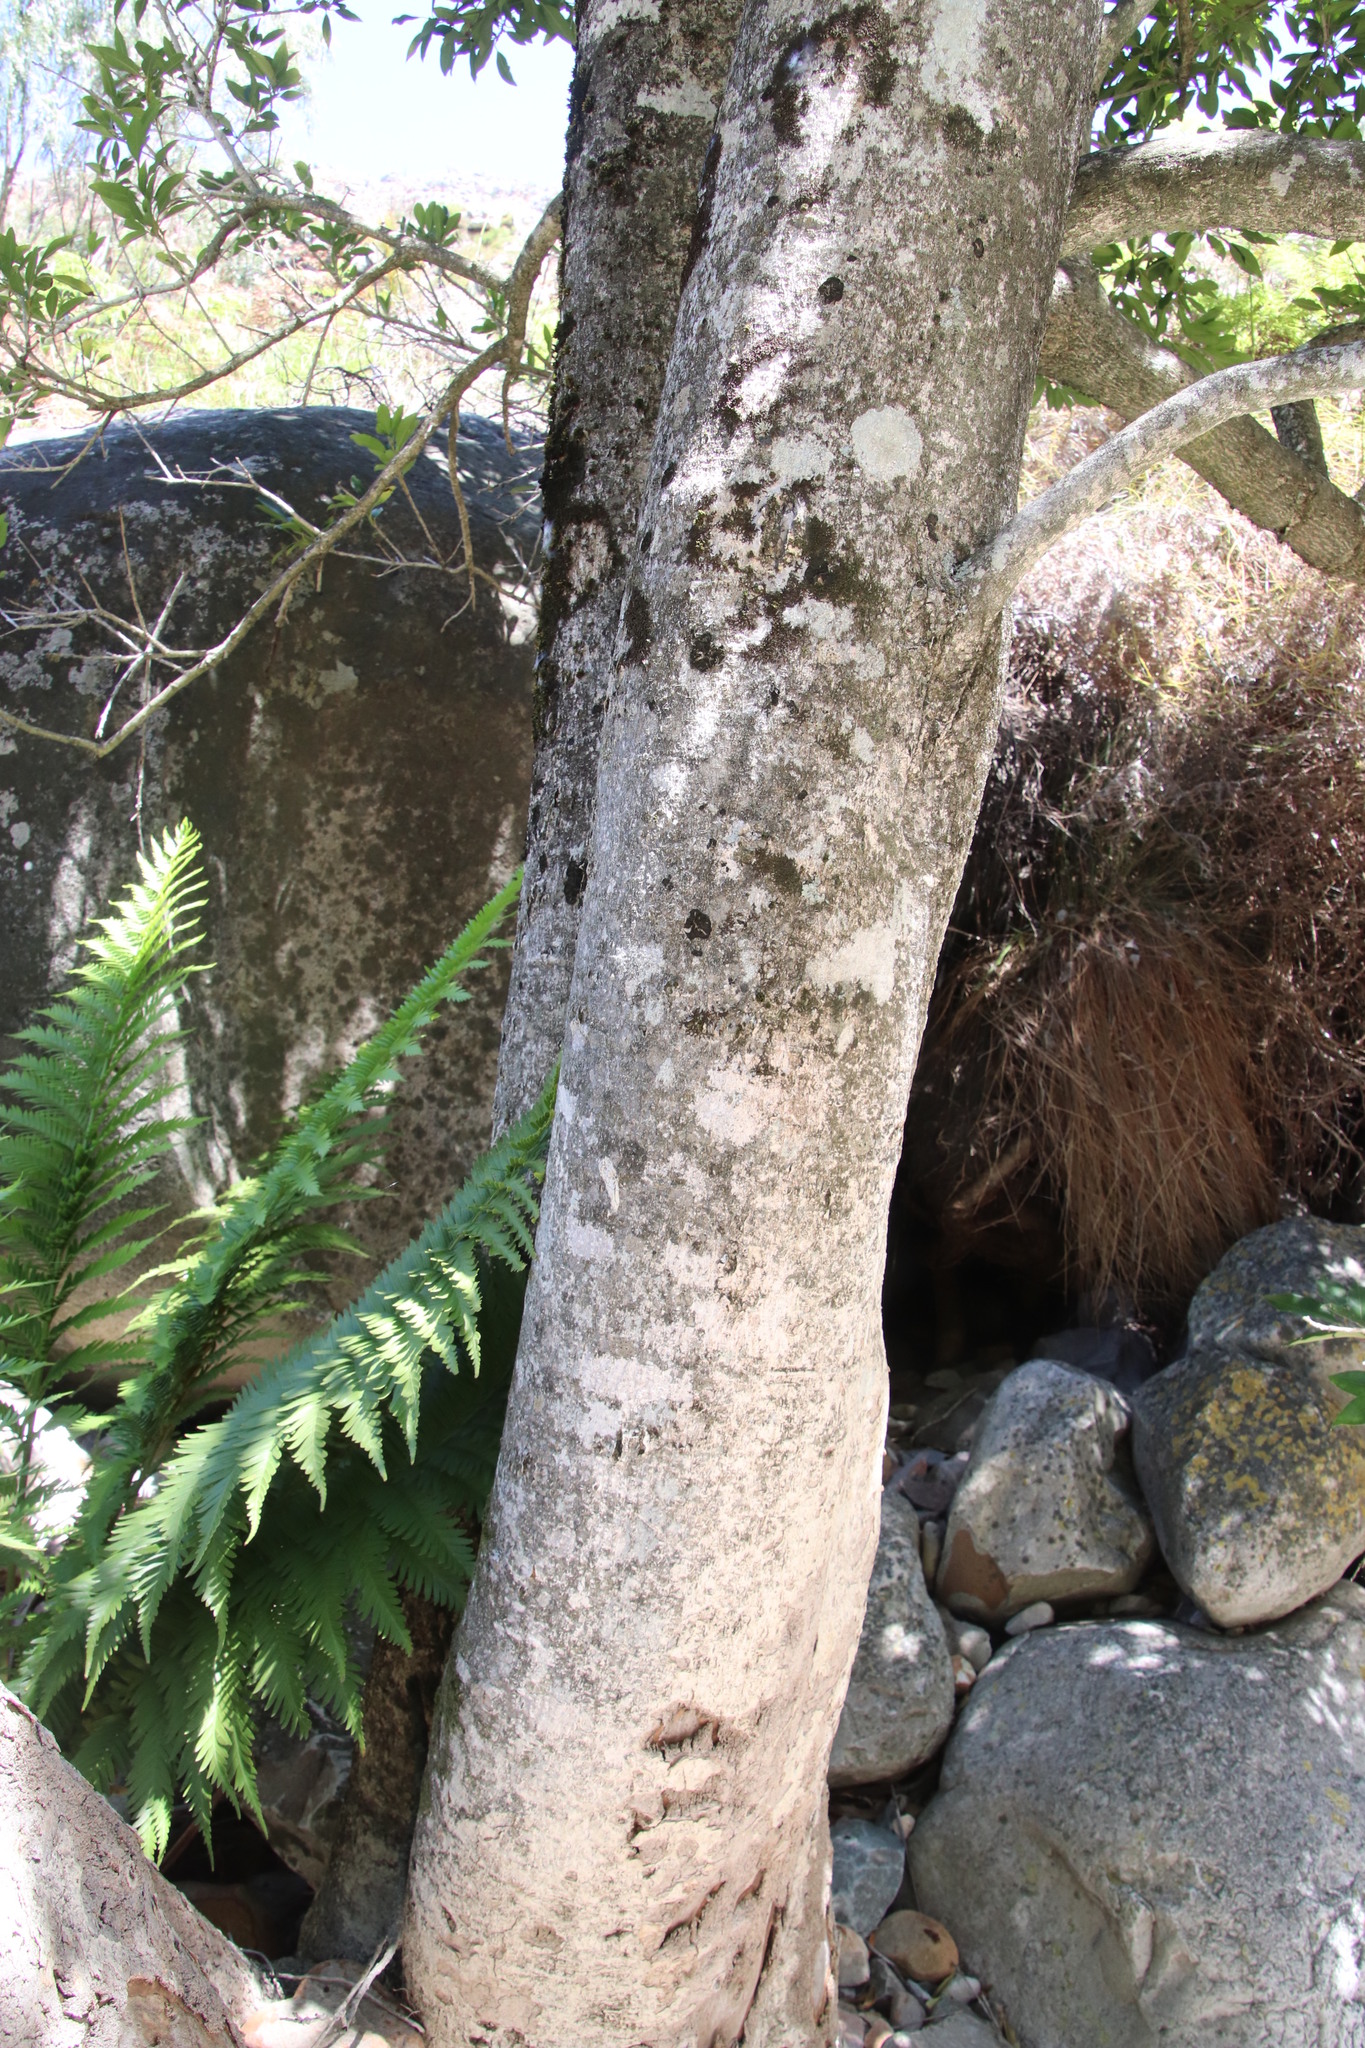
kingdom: Plantae
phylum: Tracheophyta
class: Magnoliopsida
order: Aquifoliales
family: Aquifoliaceae
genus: Ilex
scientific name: Ilex mitis
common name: African holly
